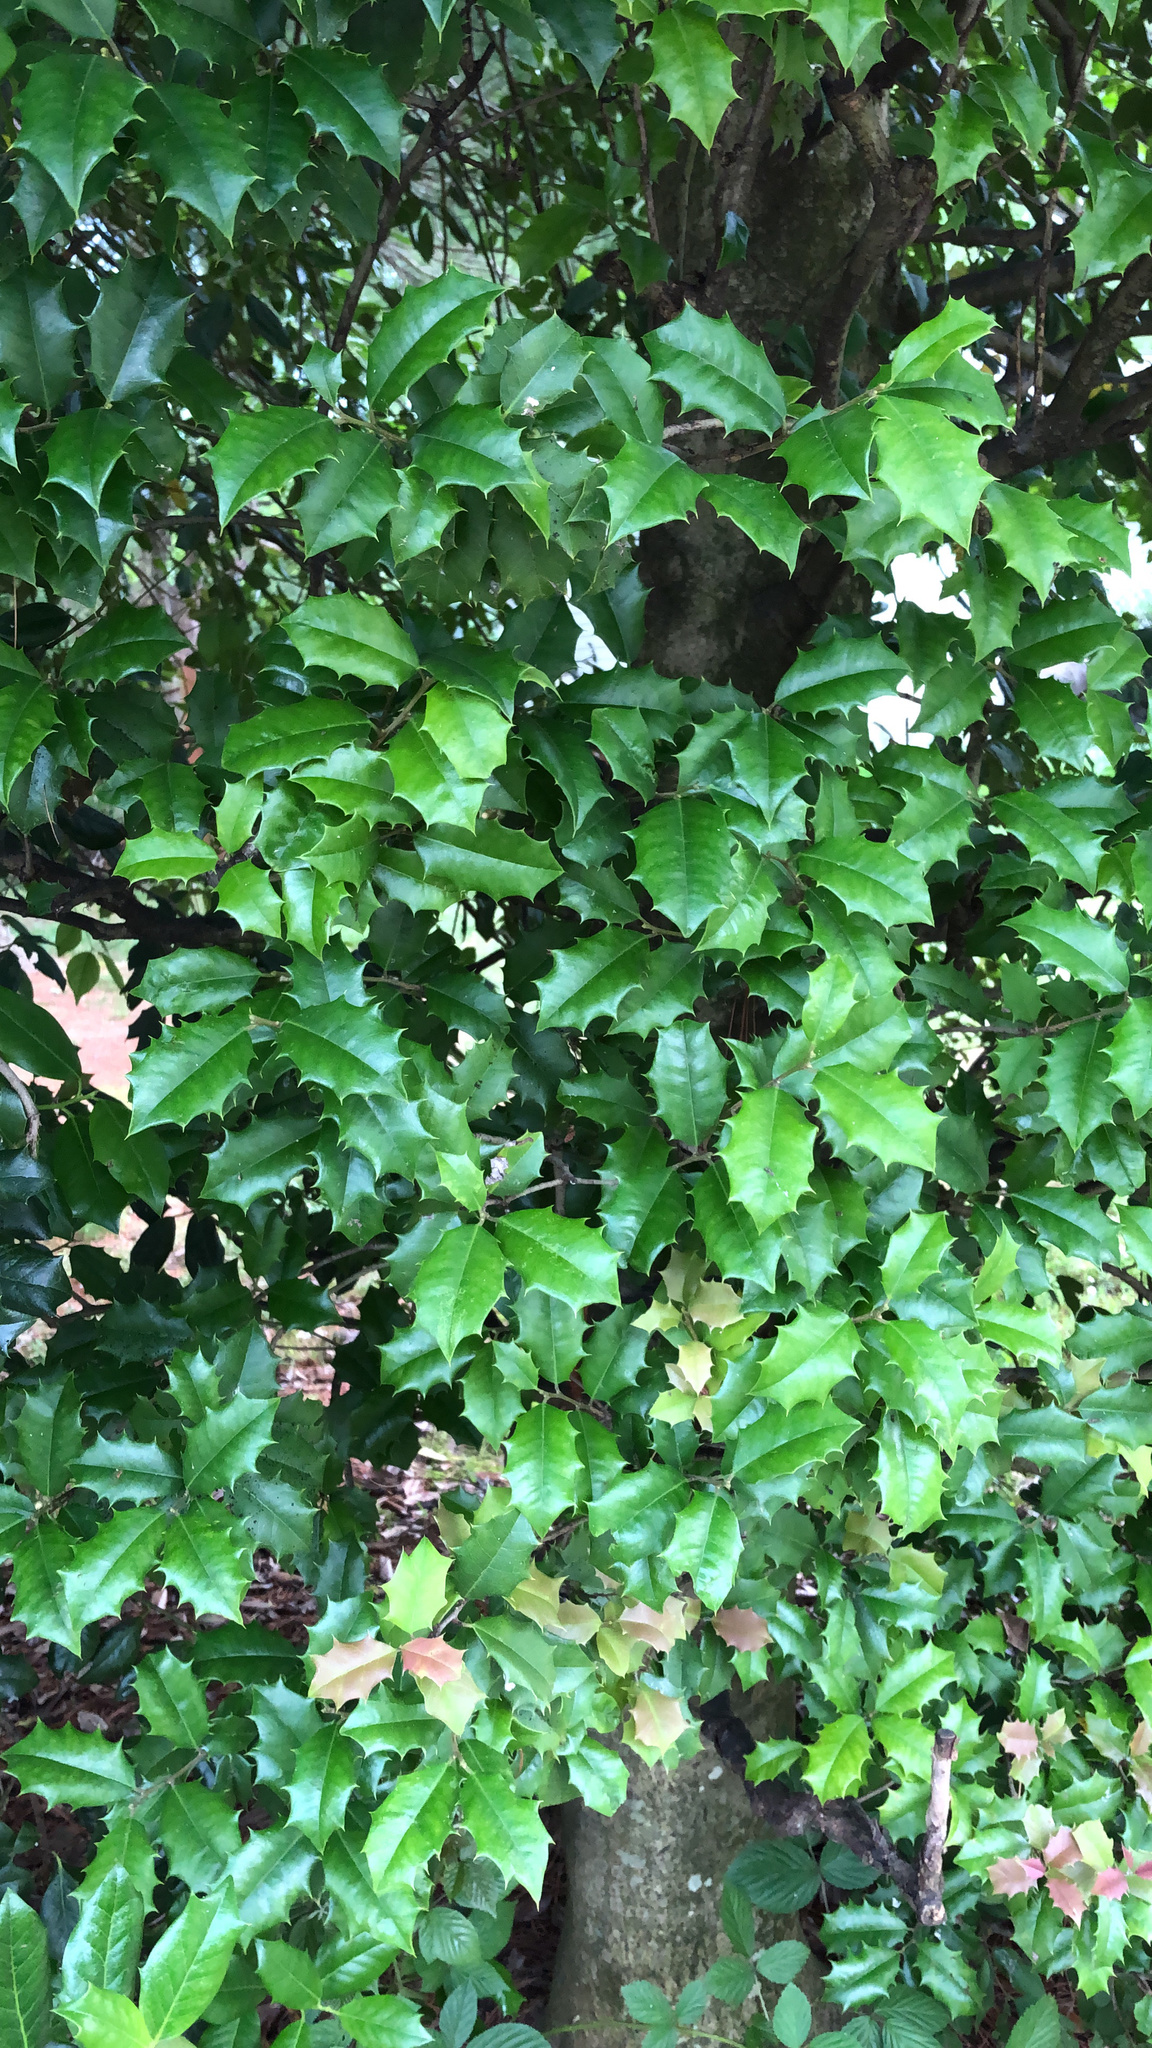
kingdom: Plantae
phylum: Tracheophyta
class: Magnoliopsida
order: Aquifoliales
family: Aquifoliaceae
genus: Ilex
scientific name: Ilex opaca
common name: American holly
